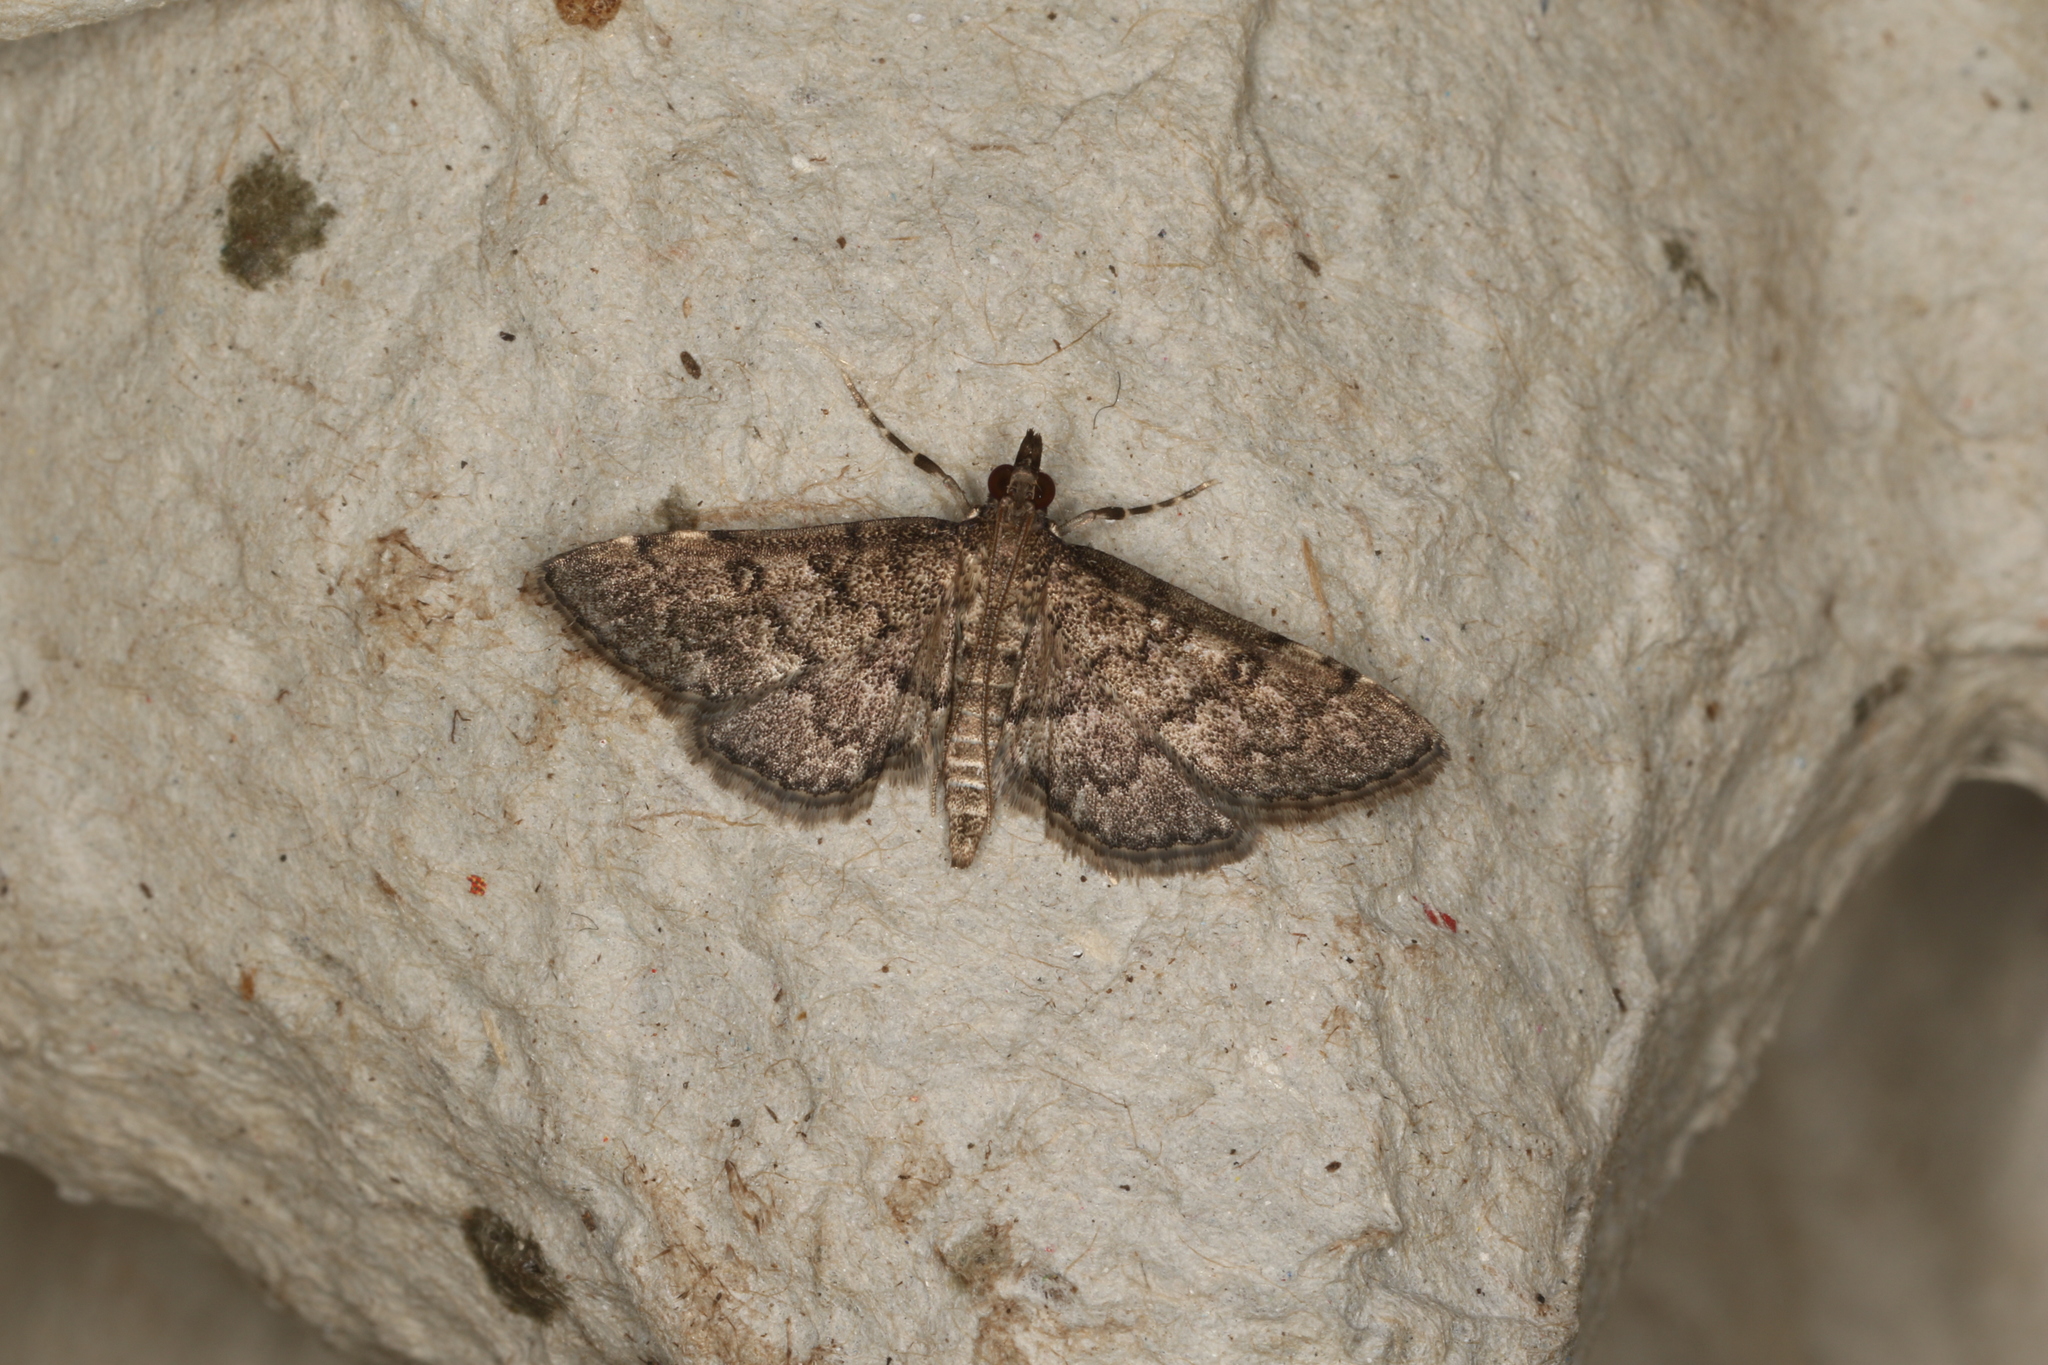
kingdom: Animalia
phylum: Arthropoda
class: Insecta
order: Lepidoptera
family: Crambidae
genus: Metasia
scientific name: Metasia liophaea
